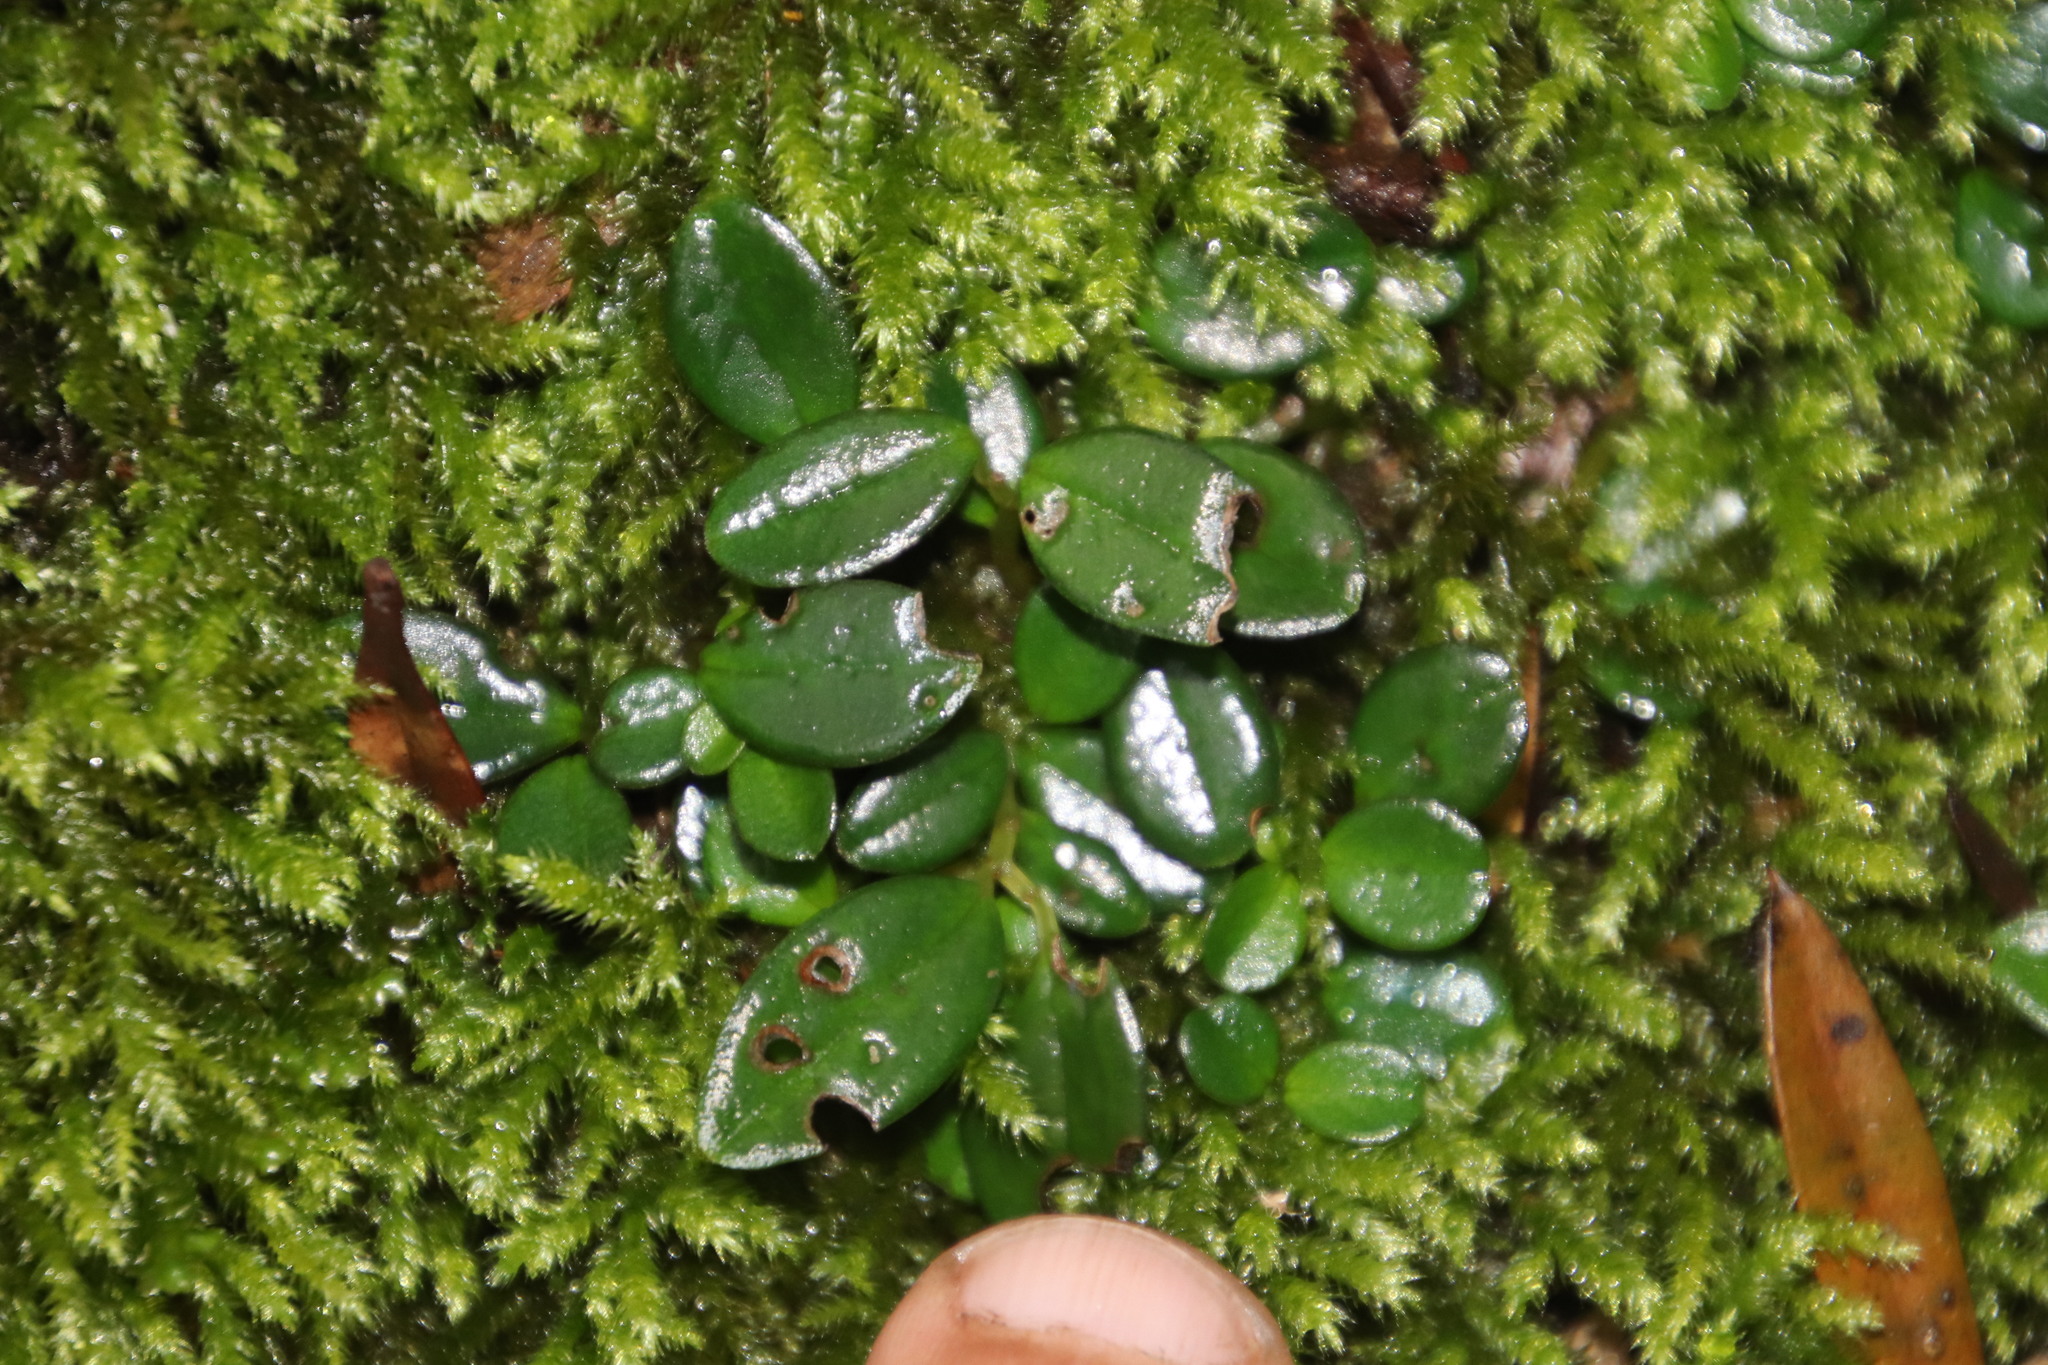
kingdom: Plantae
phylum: Tracheophyta
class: Magnoliopsida
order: Piperales
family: Piperaceae
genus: Peperomia
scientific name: Peperomia retusa
